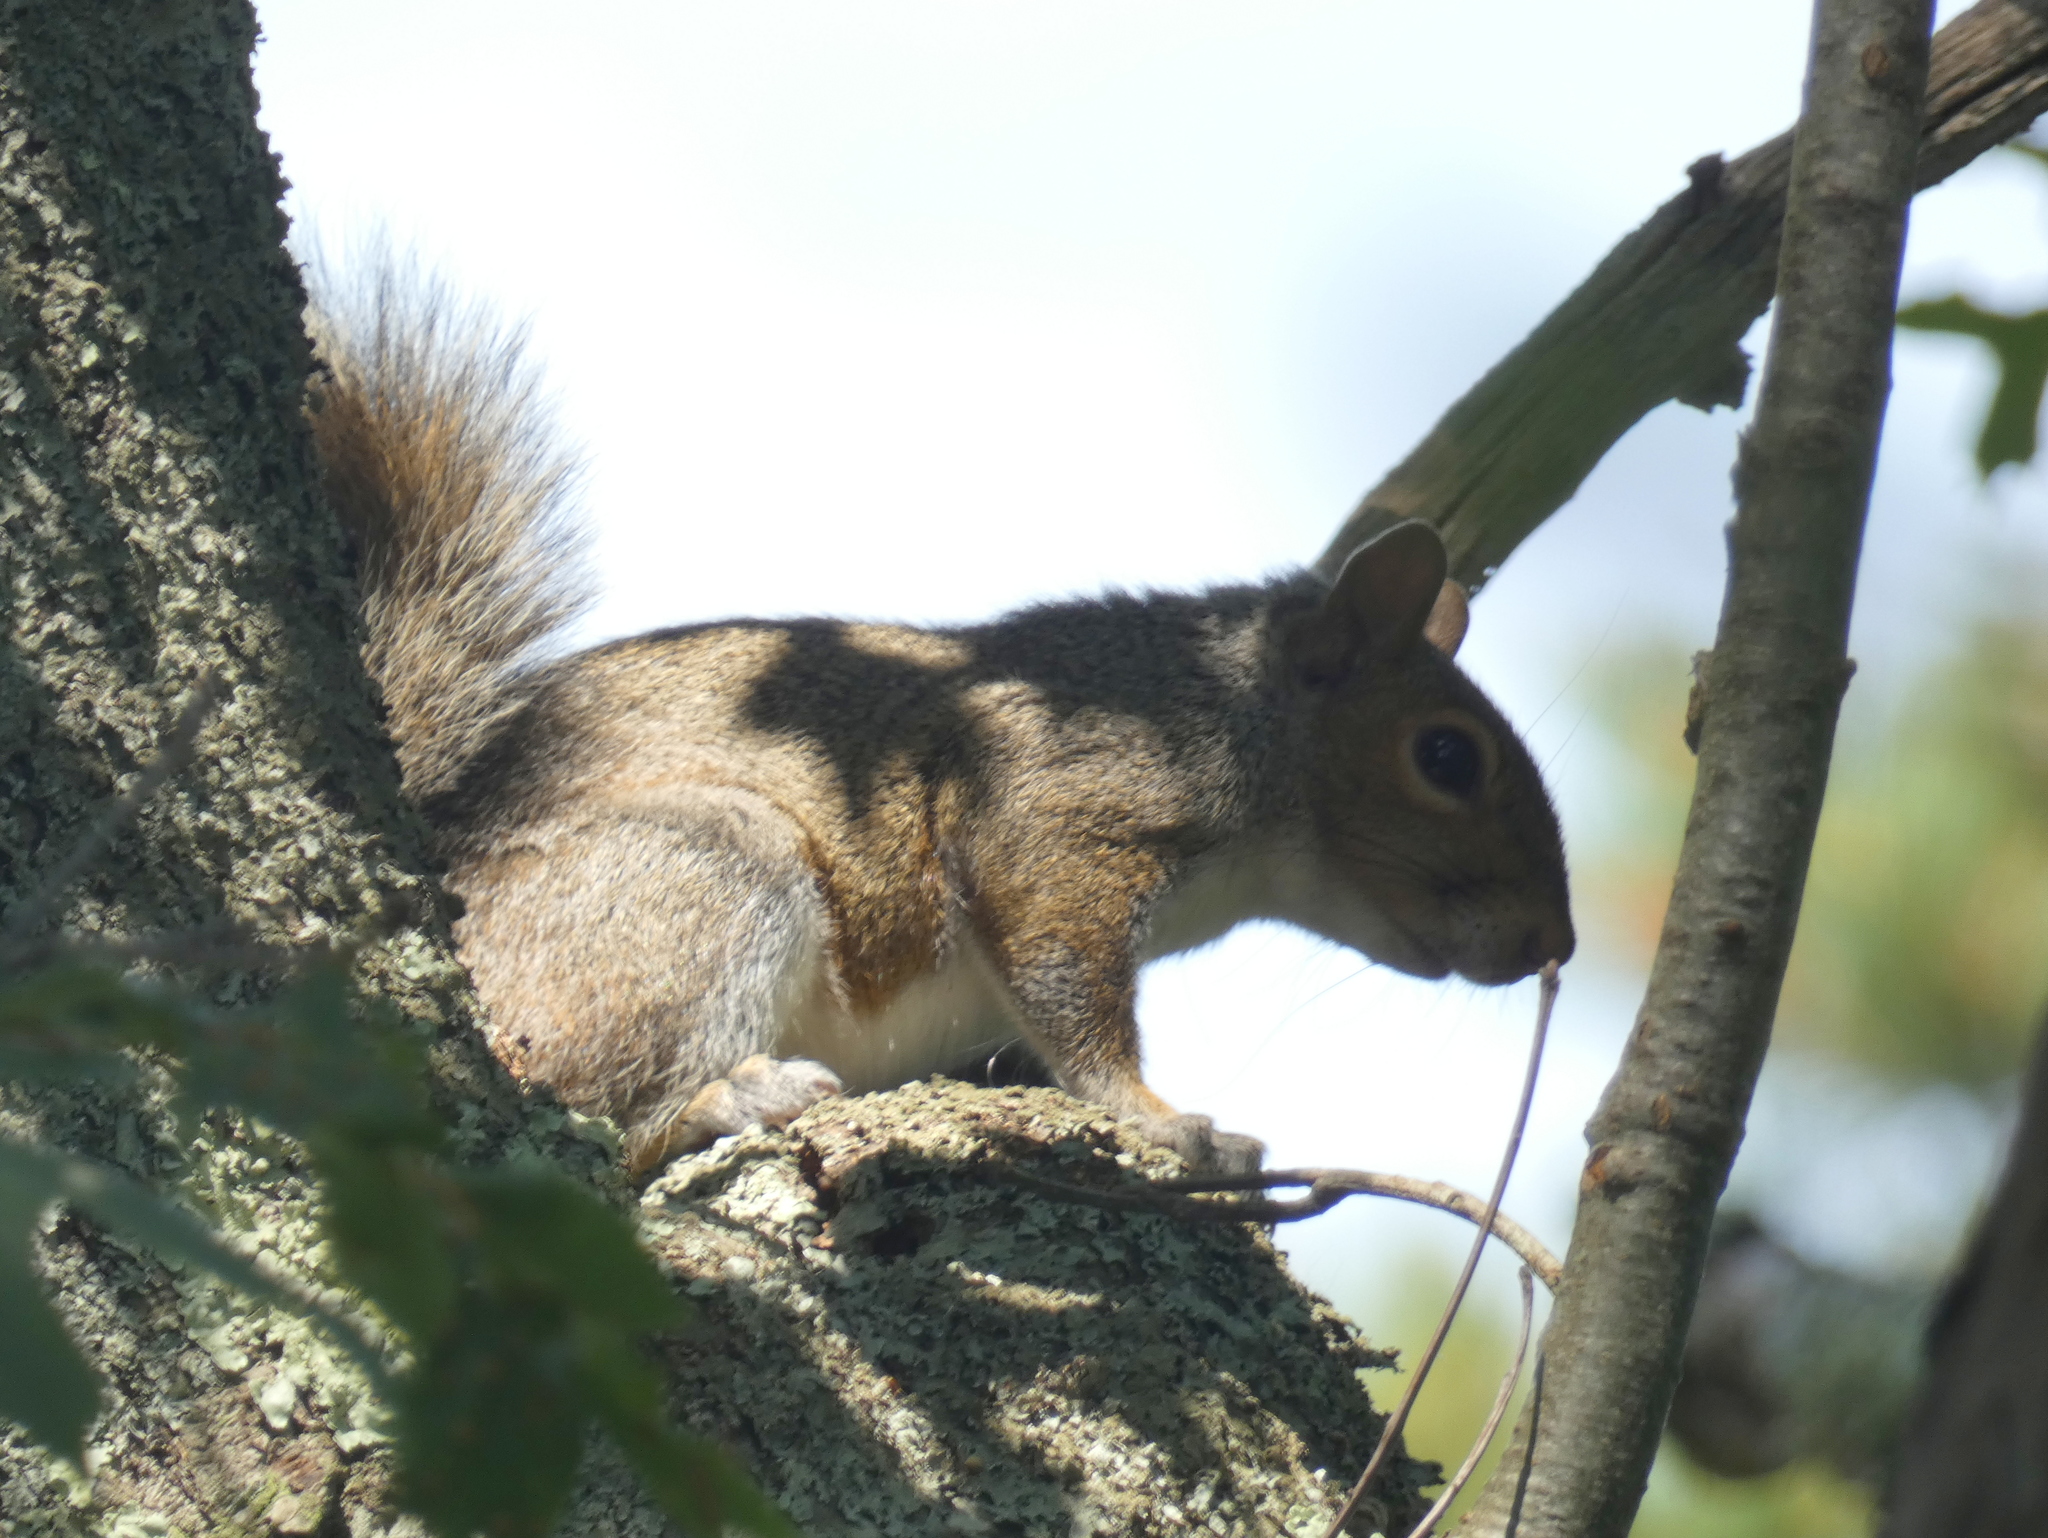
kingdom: Animalia
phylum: Chordata
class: Mammalia
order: Rodentia
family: Sciuridae
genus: Sciurus
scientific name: Sciurus carolinensis
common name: Eastern gray squirrel
